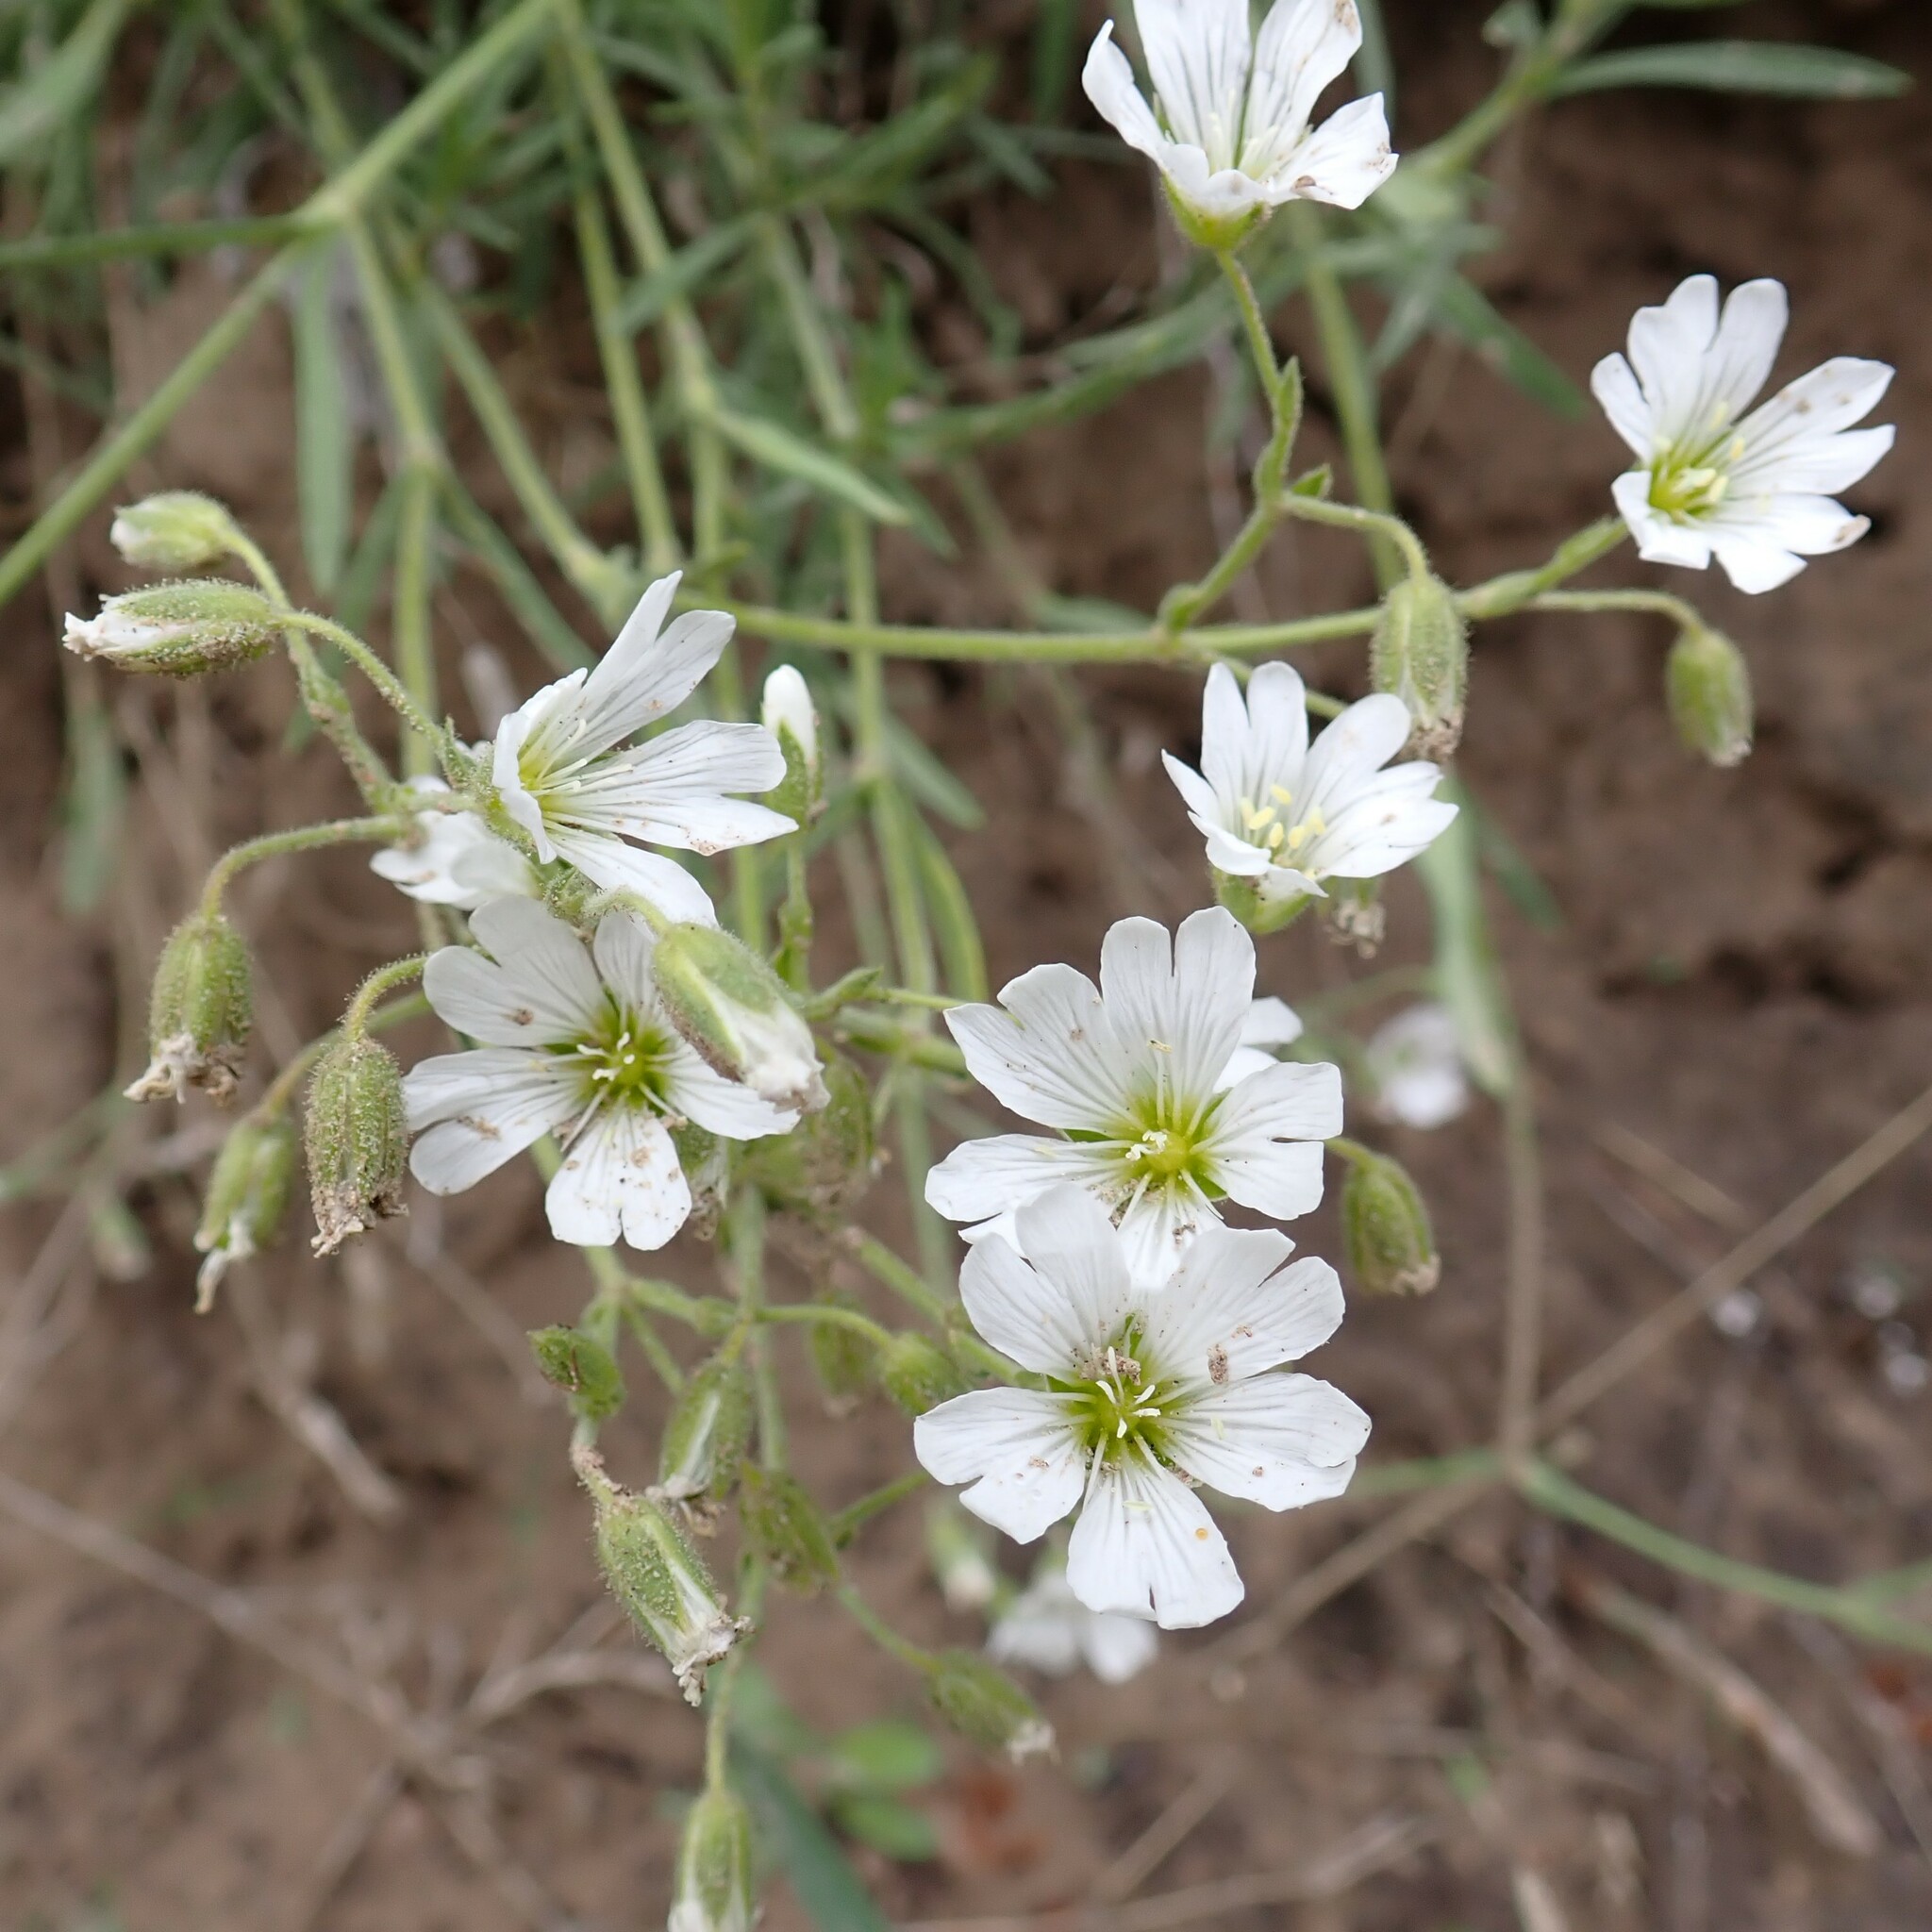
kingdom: Plantae
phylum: Tracheophyta
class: Magnoliopsida
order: Caryophyllales
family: Caryophyllaceae
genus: Cerastium
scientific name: Cerastium arvense
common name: Field mouse-ear
